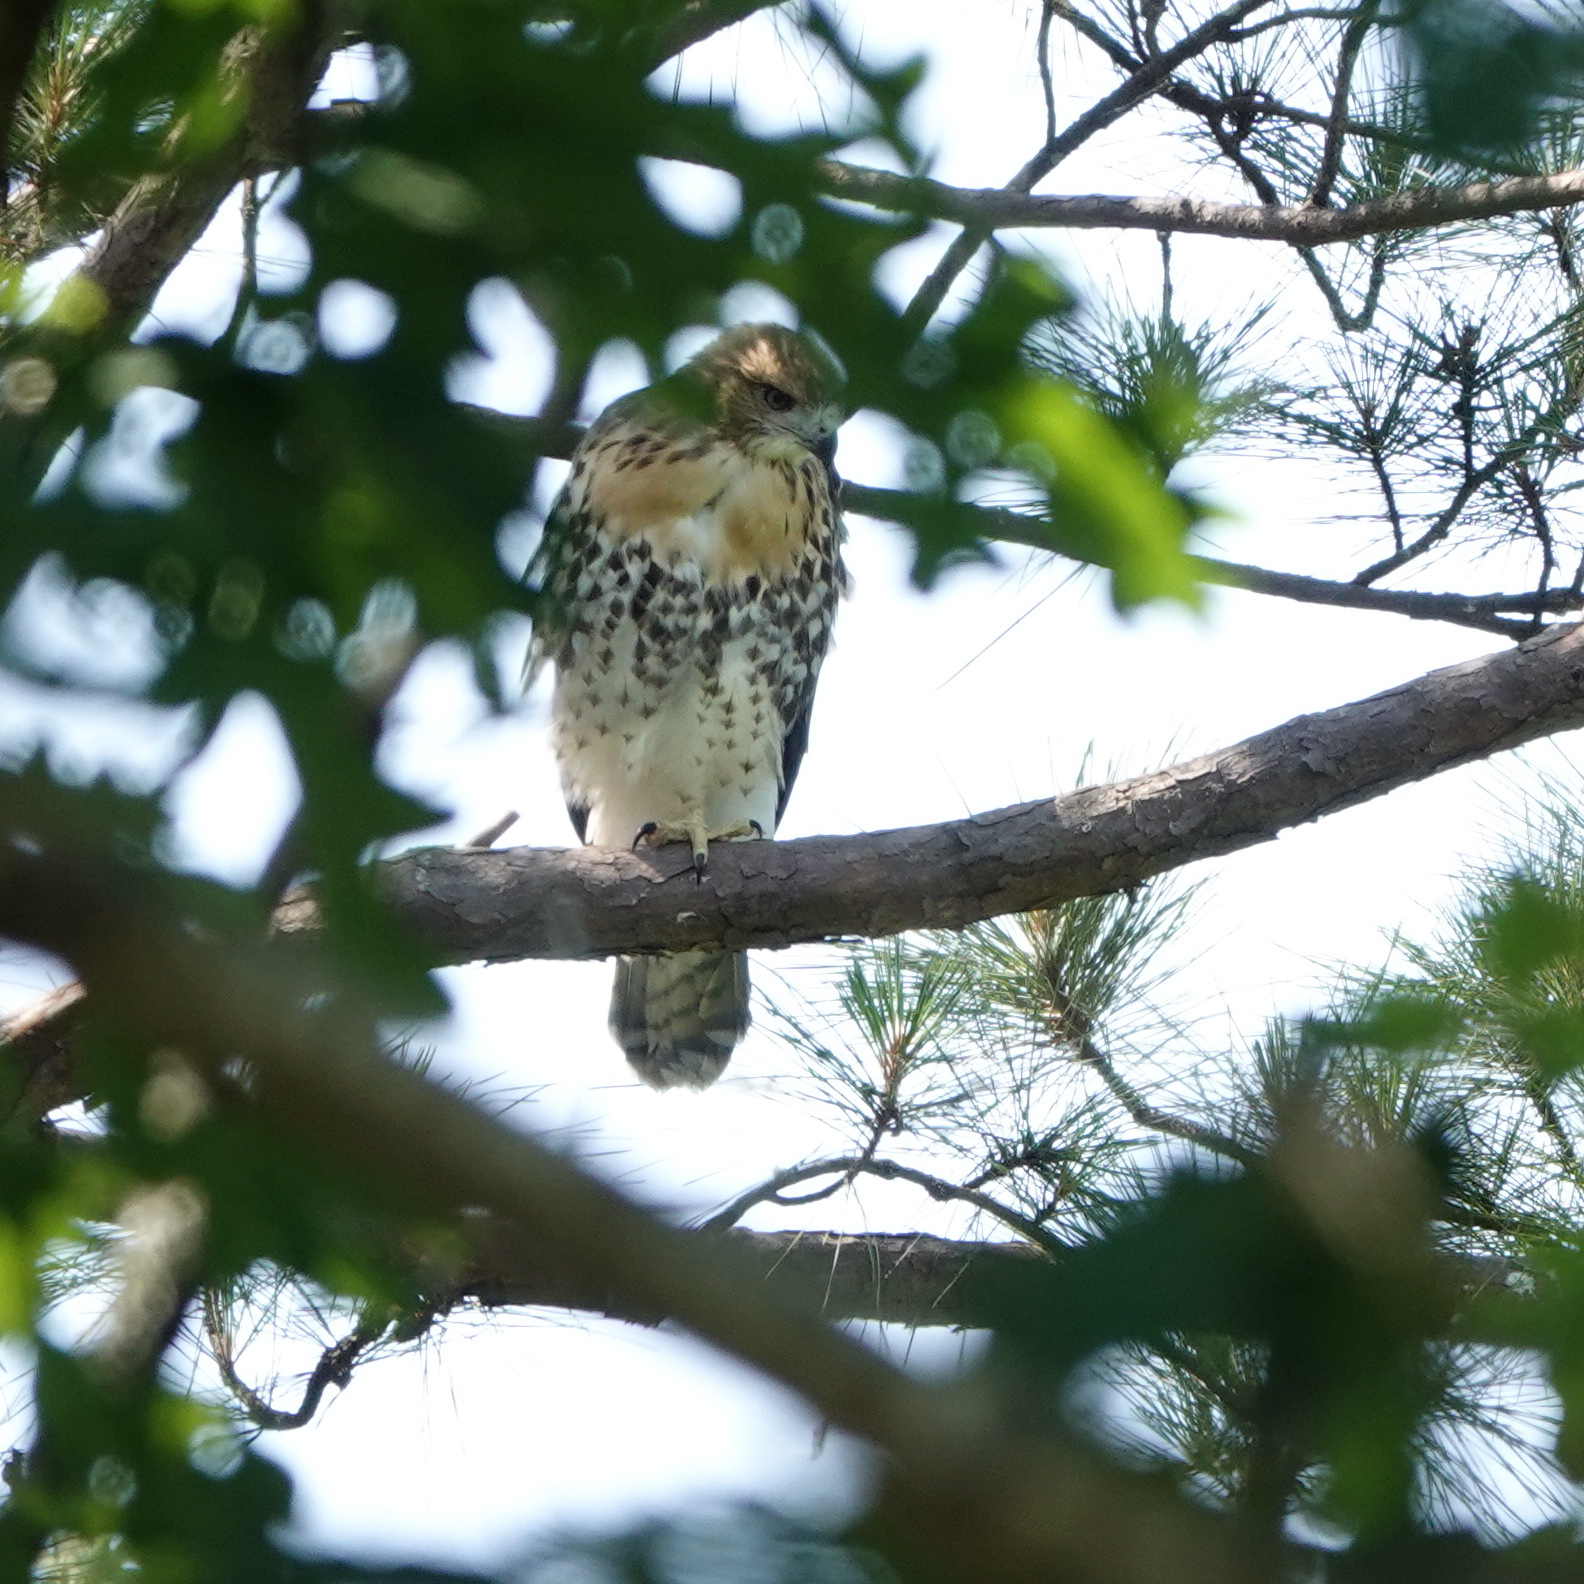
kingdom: Animalia
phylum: Chordata
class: Aves
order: Accipitriformes
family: Accipitridae
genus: Buteo
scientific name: Buteo jamaicensis
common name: Red-tailed hawk
